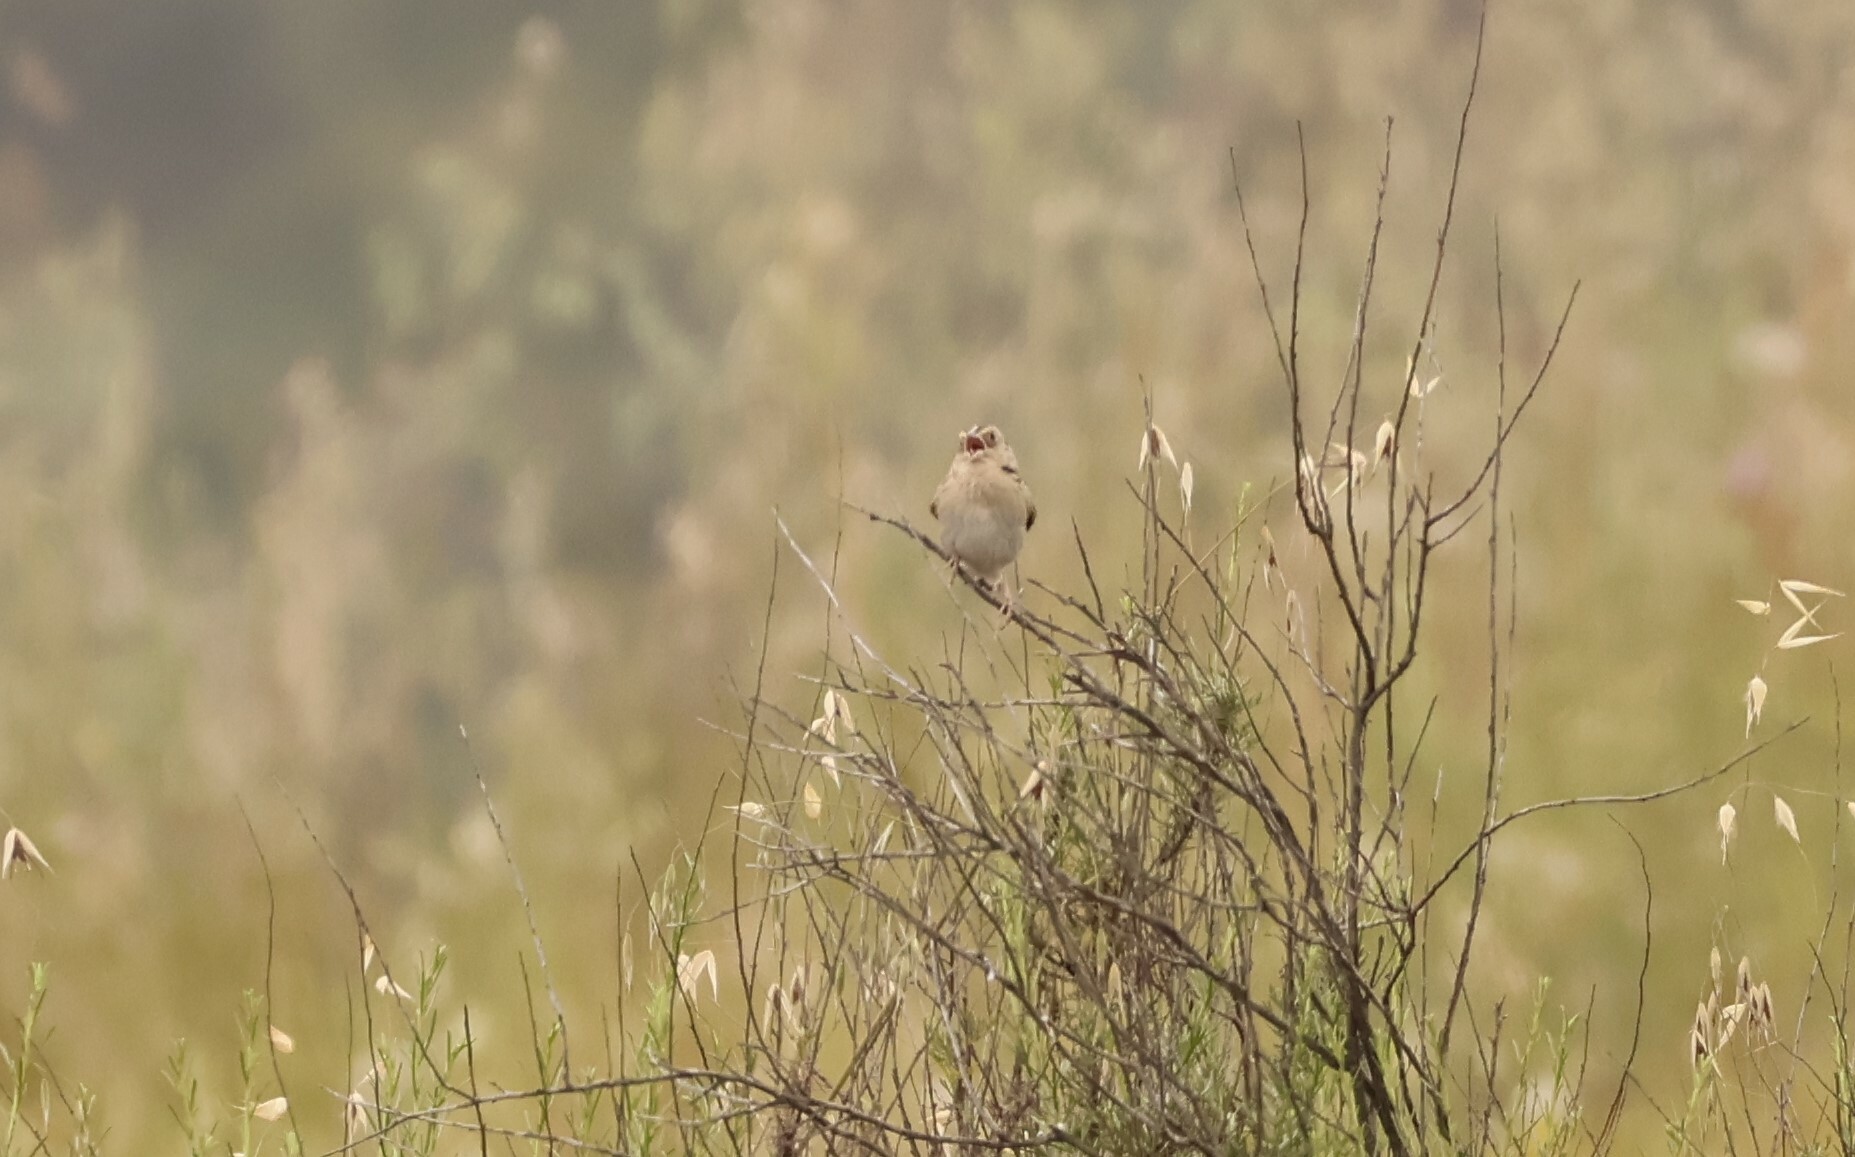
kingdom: Animalia
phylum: Chordata
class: Aves
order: Passeriformes
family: Passerellidae
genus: Ammodramus
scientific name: Ammodramus savannarum
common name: Grasshopper sparrow
